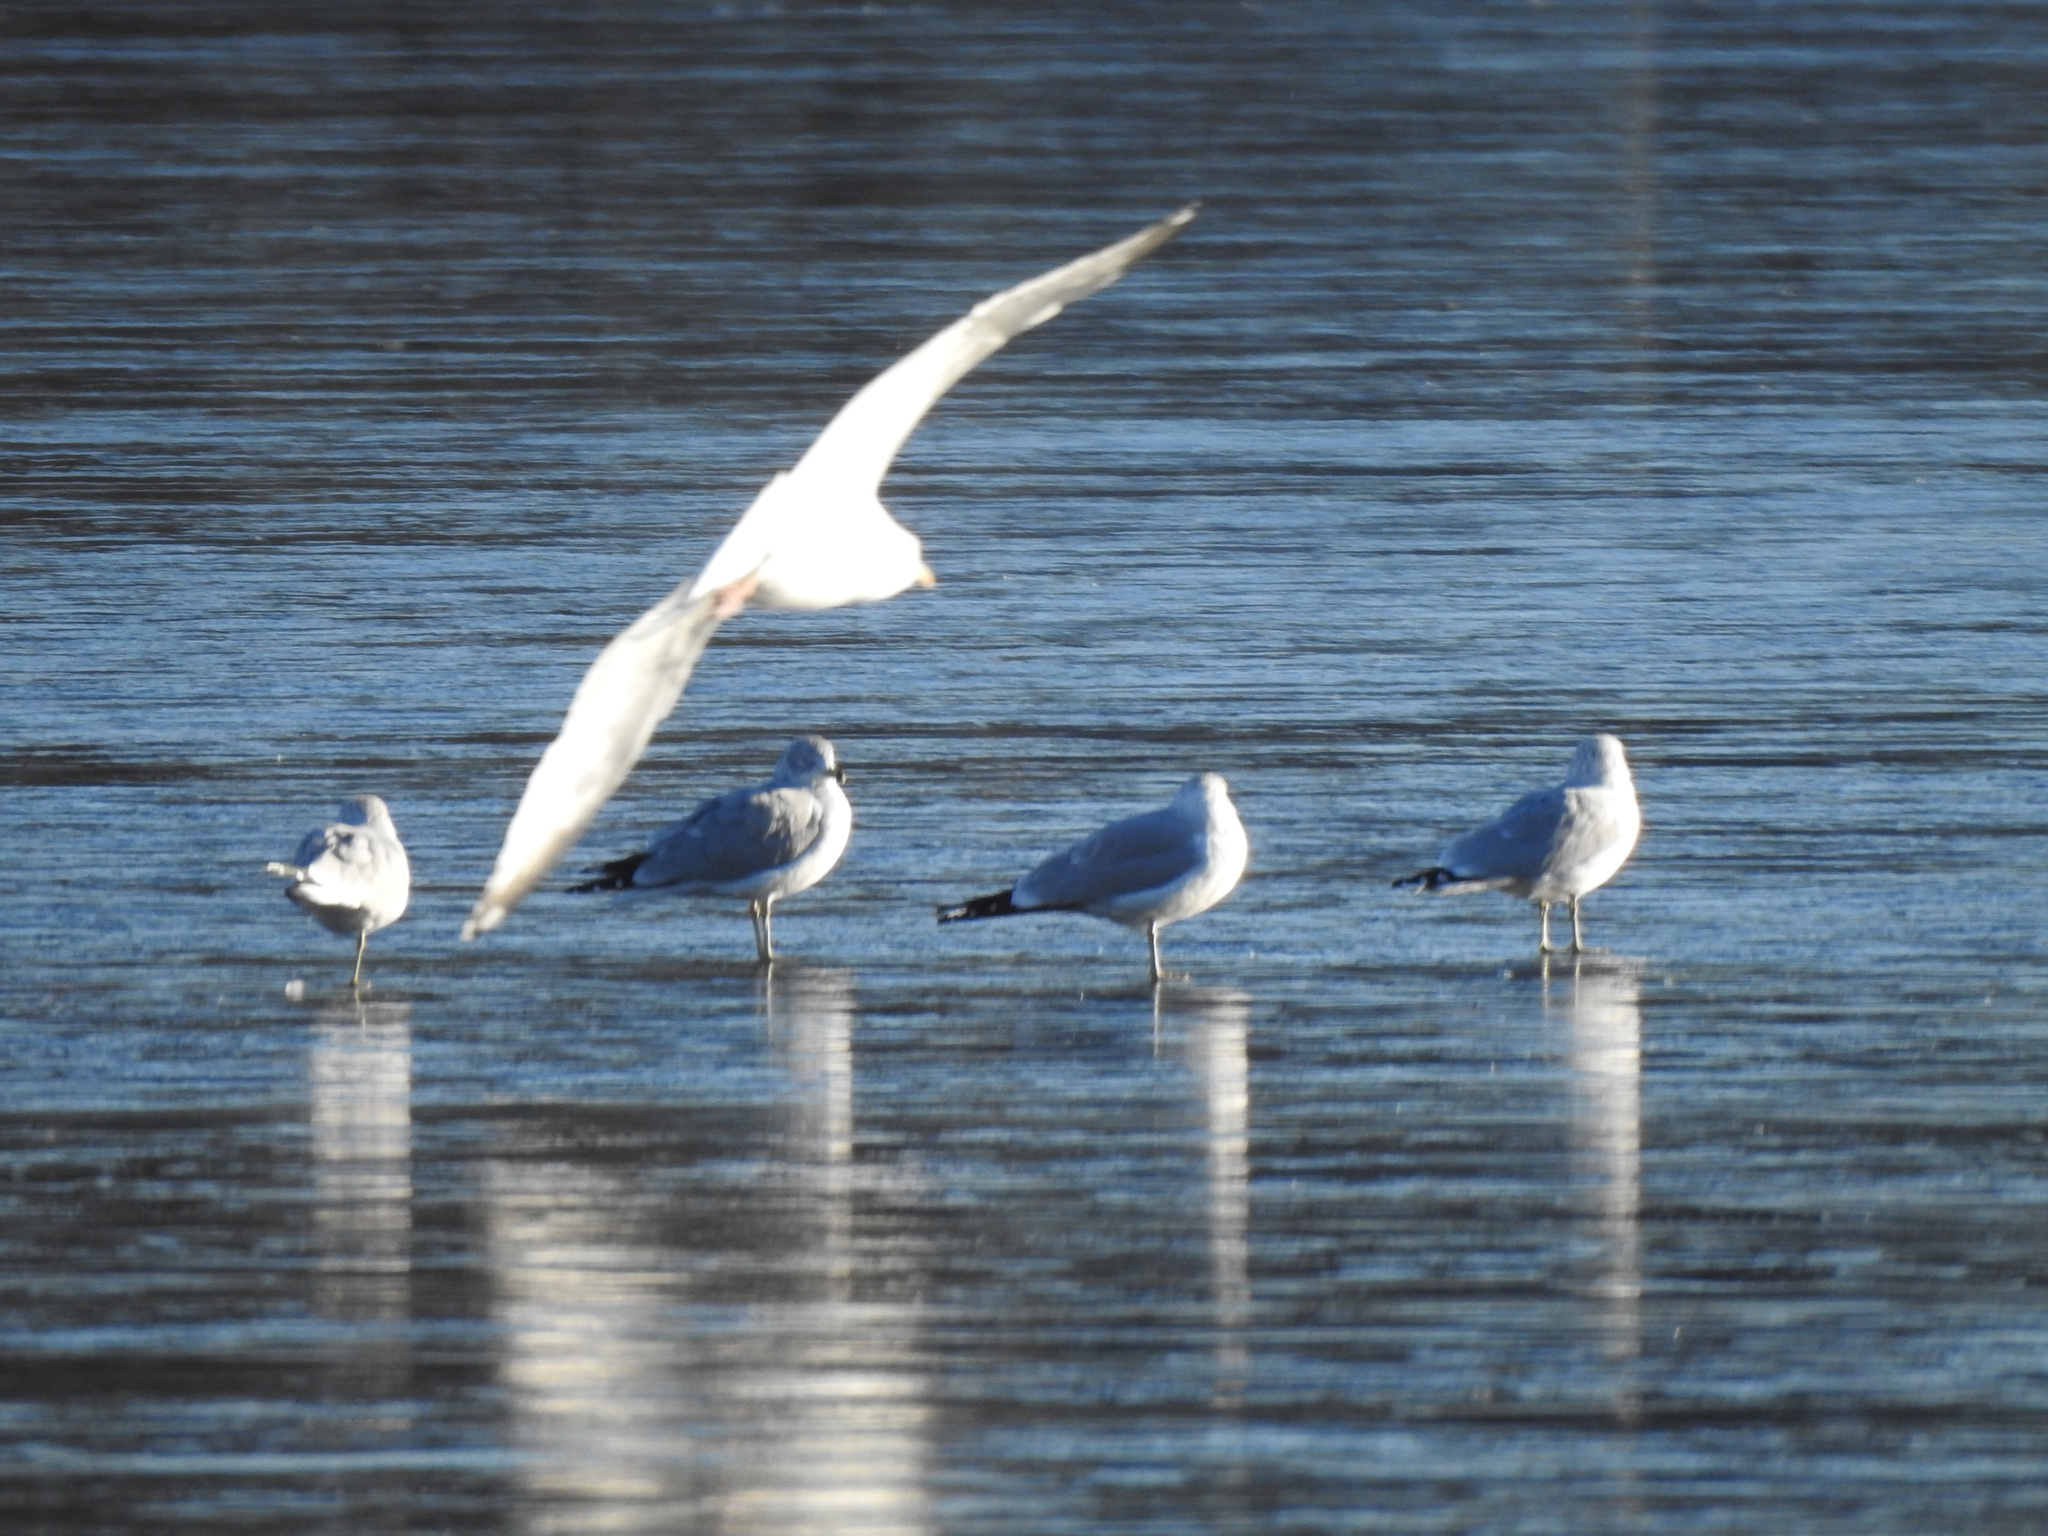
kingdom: Animalia
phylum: Chordata
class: Aves
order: Charadriiformes
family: Laridae
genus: Larus
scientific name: Larus delawarensis
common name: Ring-billed gull
